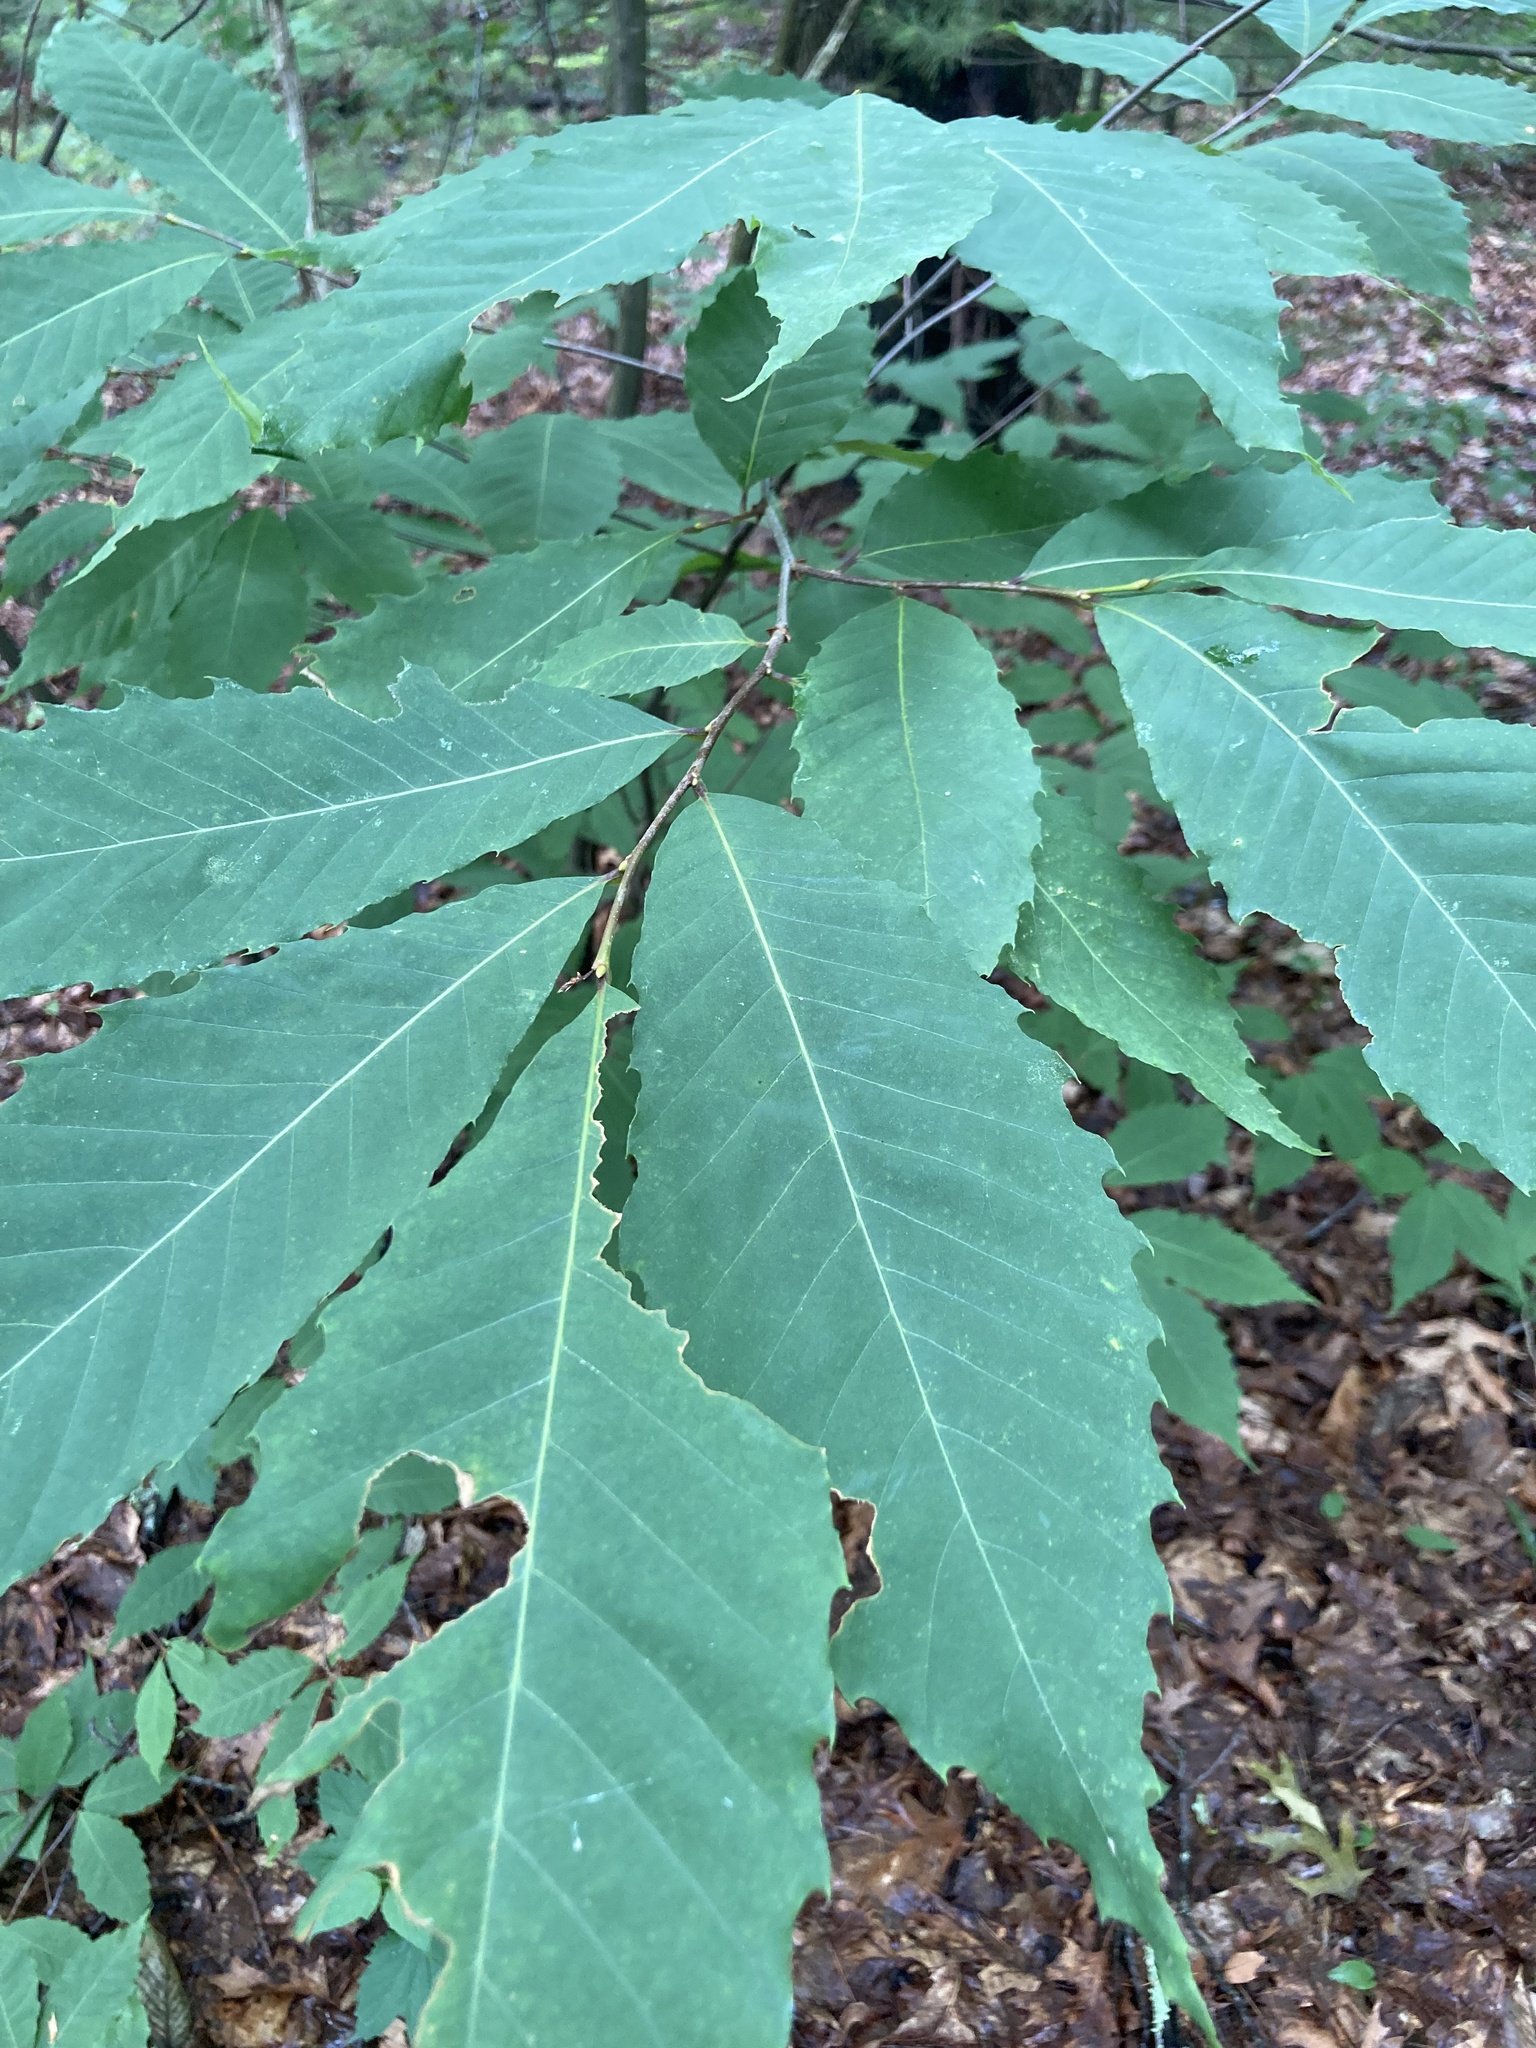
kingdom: Plantae
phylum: Tracheophyta
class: Magnoliopsida
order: Fagales
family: Fagaceae
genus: Castanea
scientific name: Castanea dentata
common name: American chestnut
